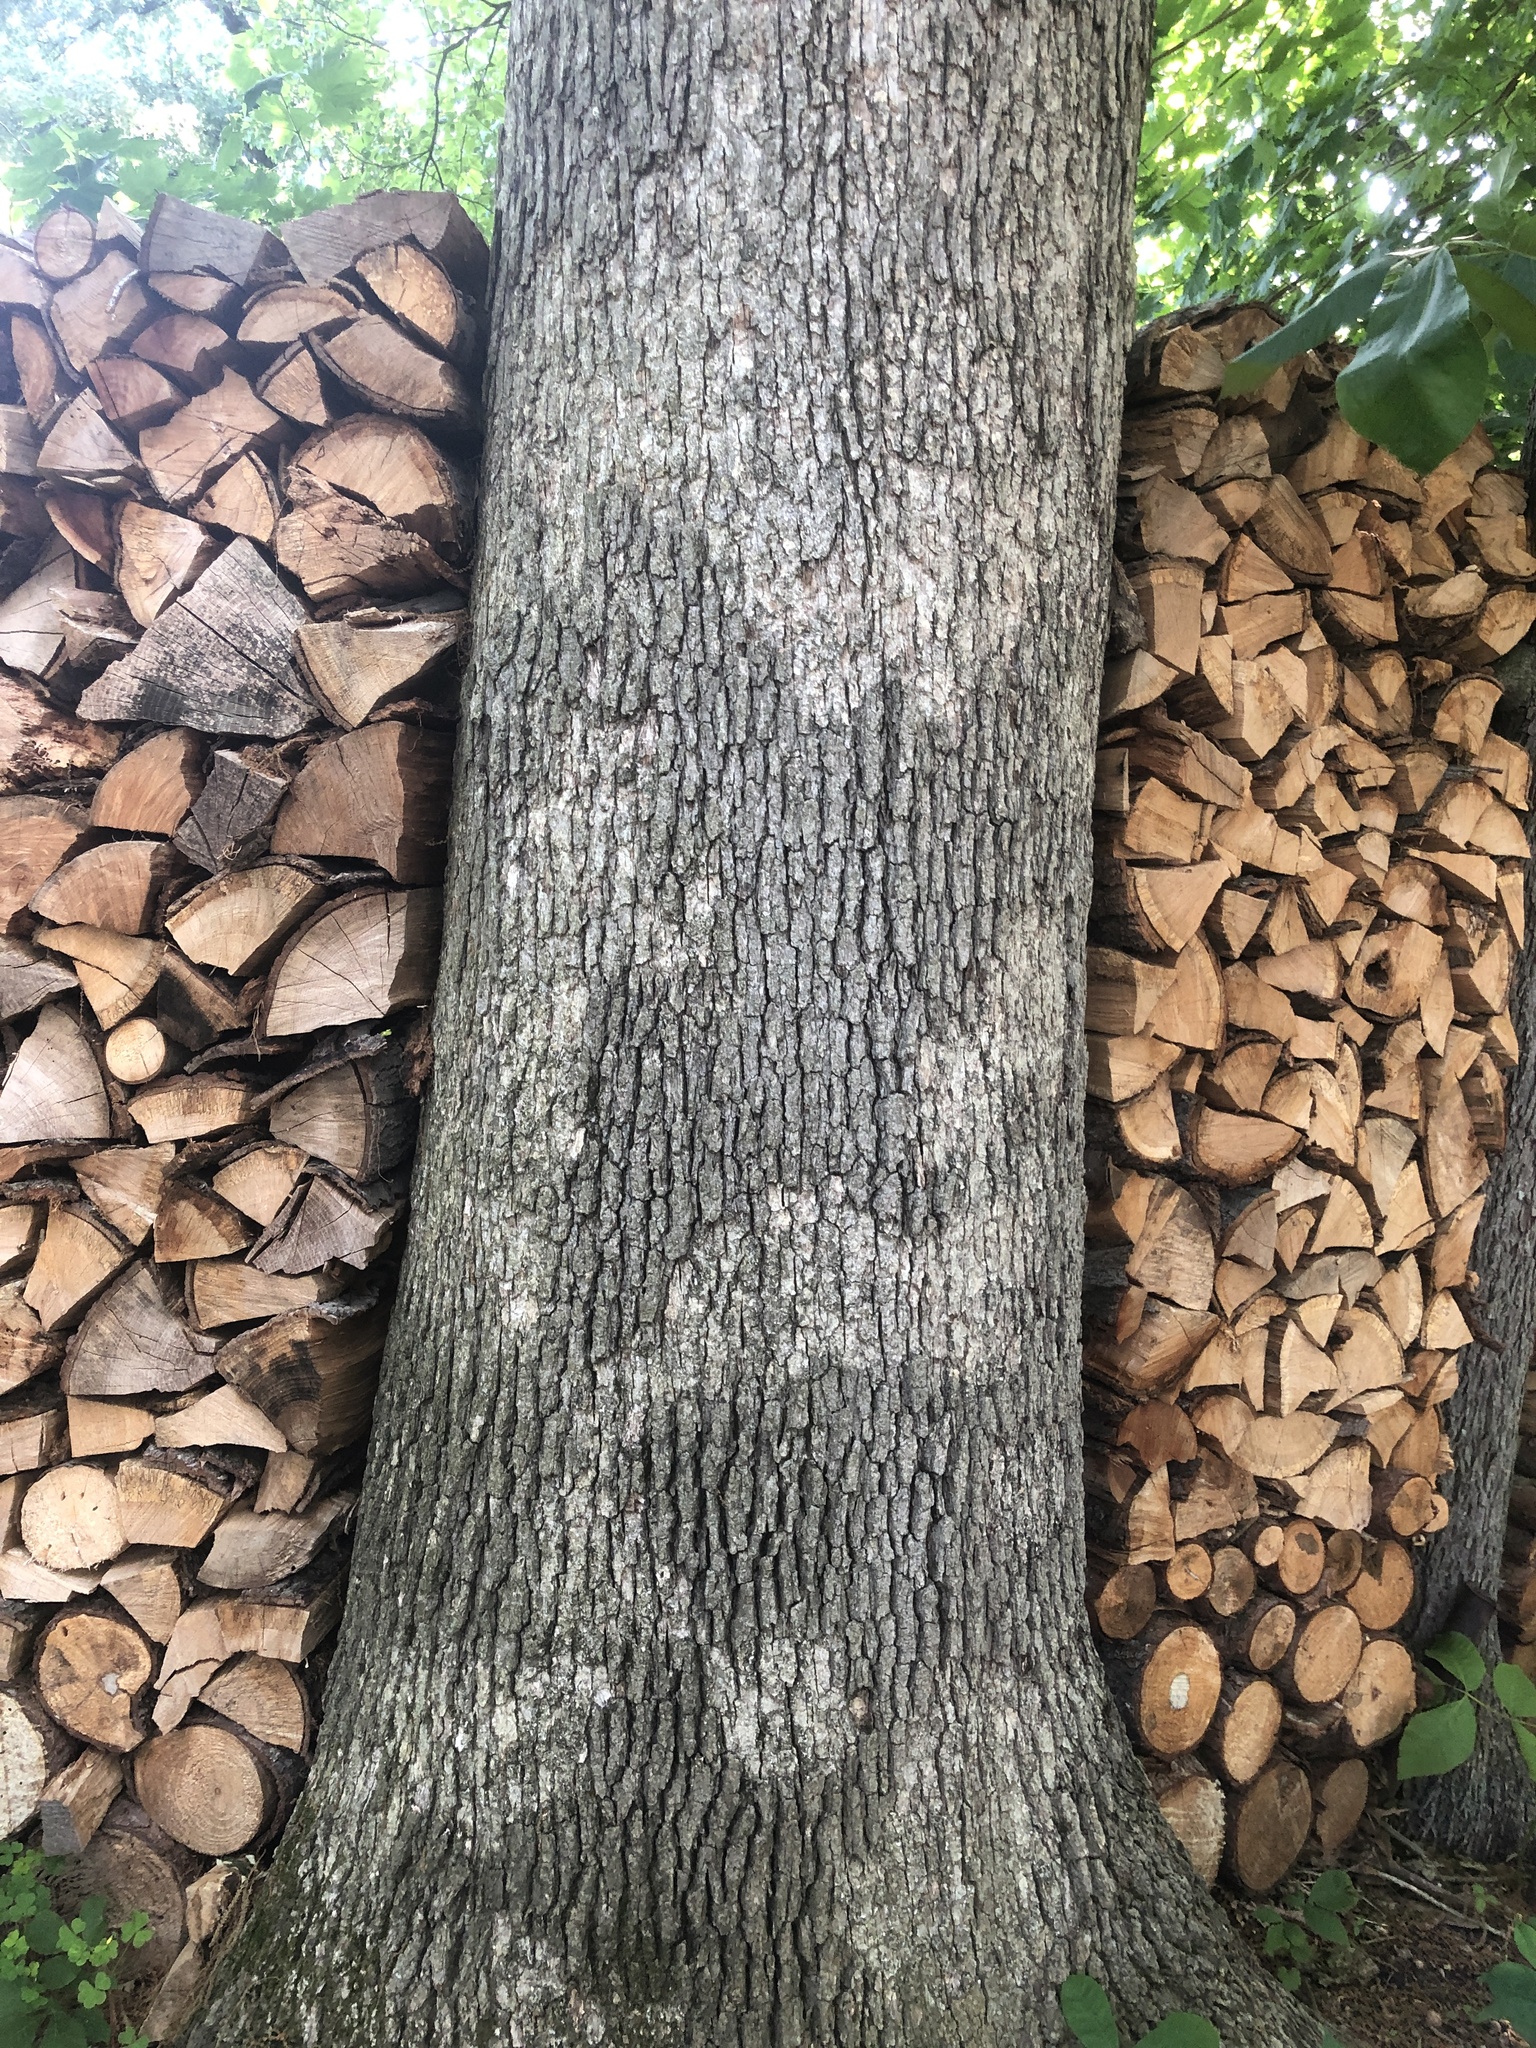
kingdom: Fungi
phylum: Basidiomycota
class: Agaricomycetes
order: Russulales
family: Stereaceae
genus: Acanthophysium
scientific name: Acanthophysium oakesii
